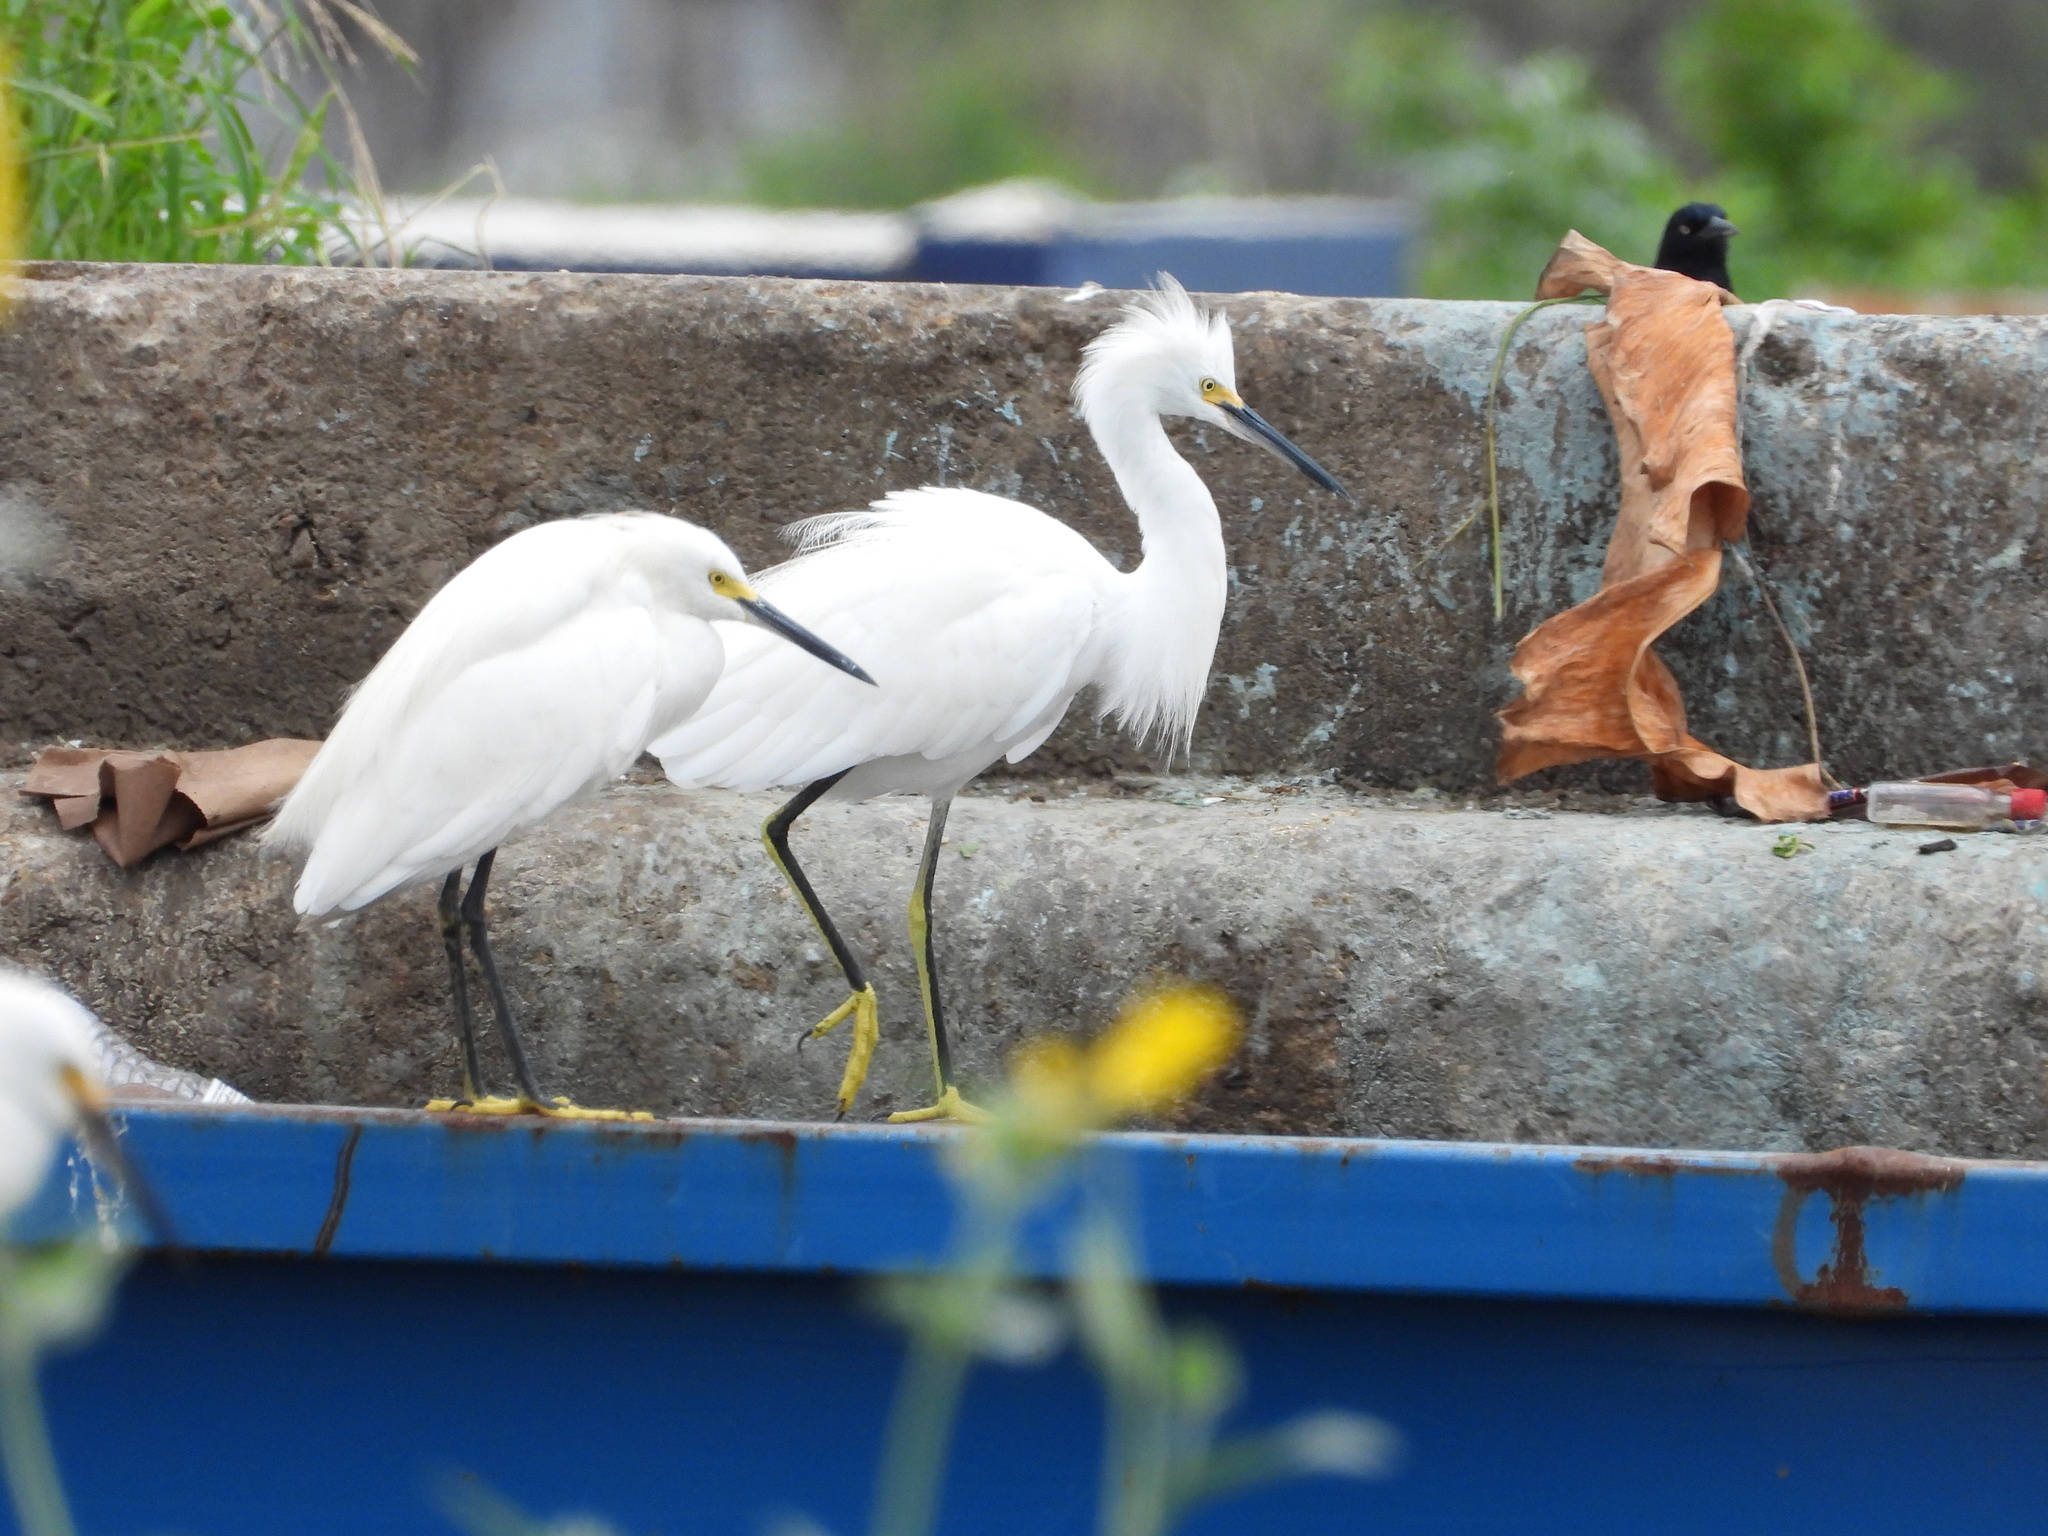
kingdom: Animalia
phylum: Chordata
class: Aves
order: Pelecaniformes
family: Ardeidae
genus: Egretta
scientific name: Egretta thula
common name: Snowy egret
